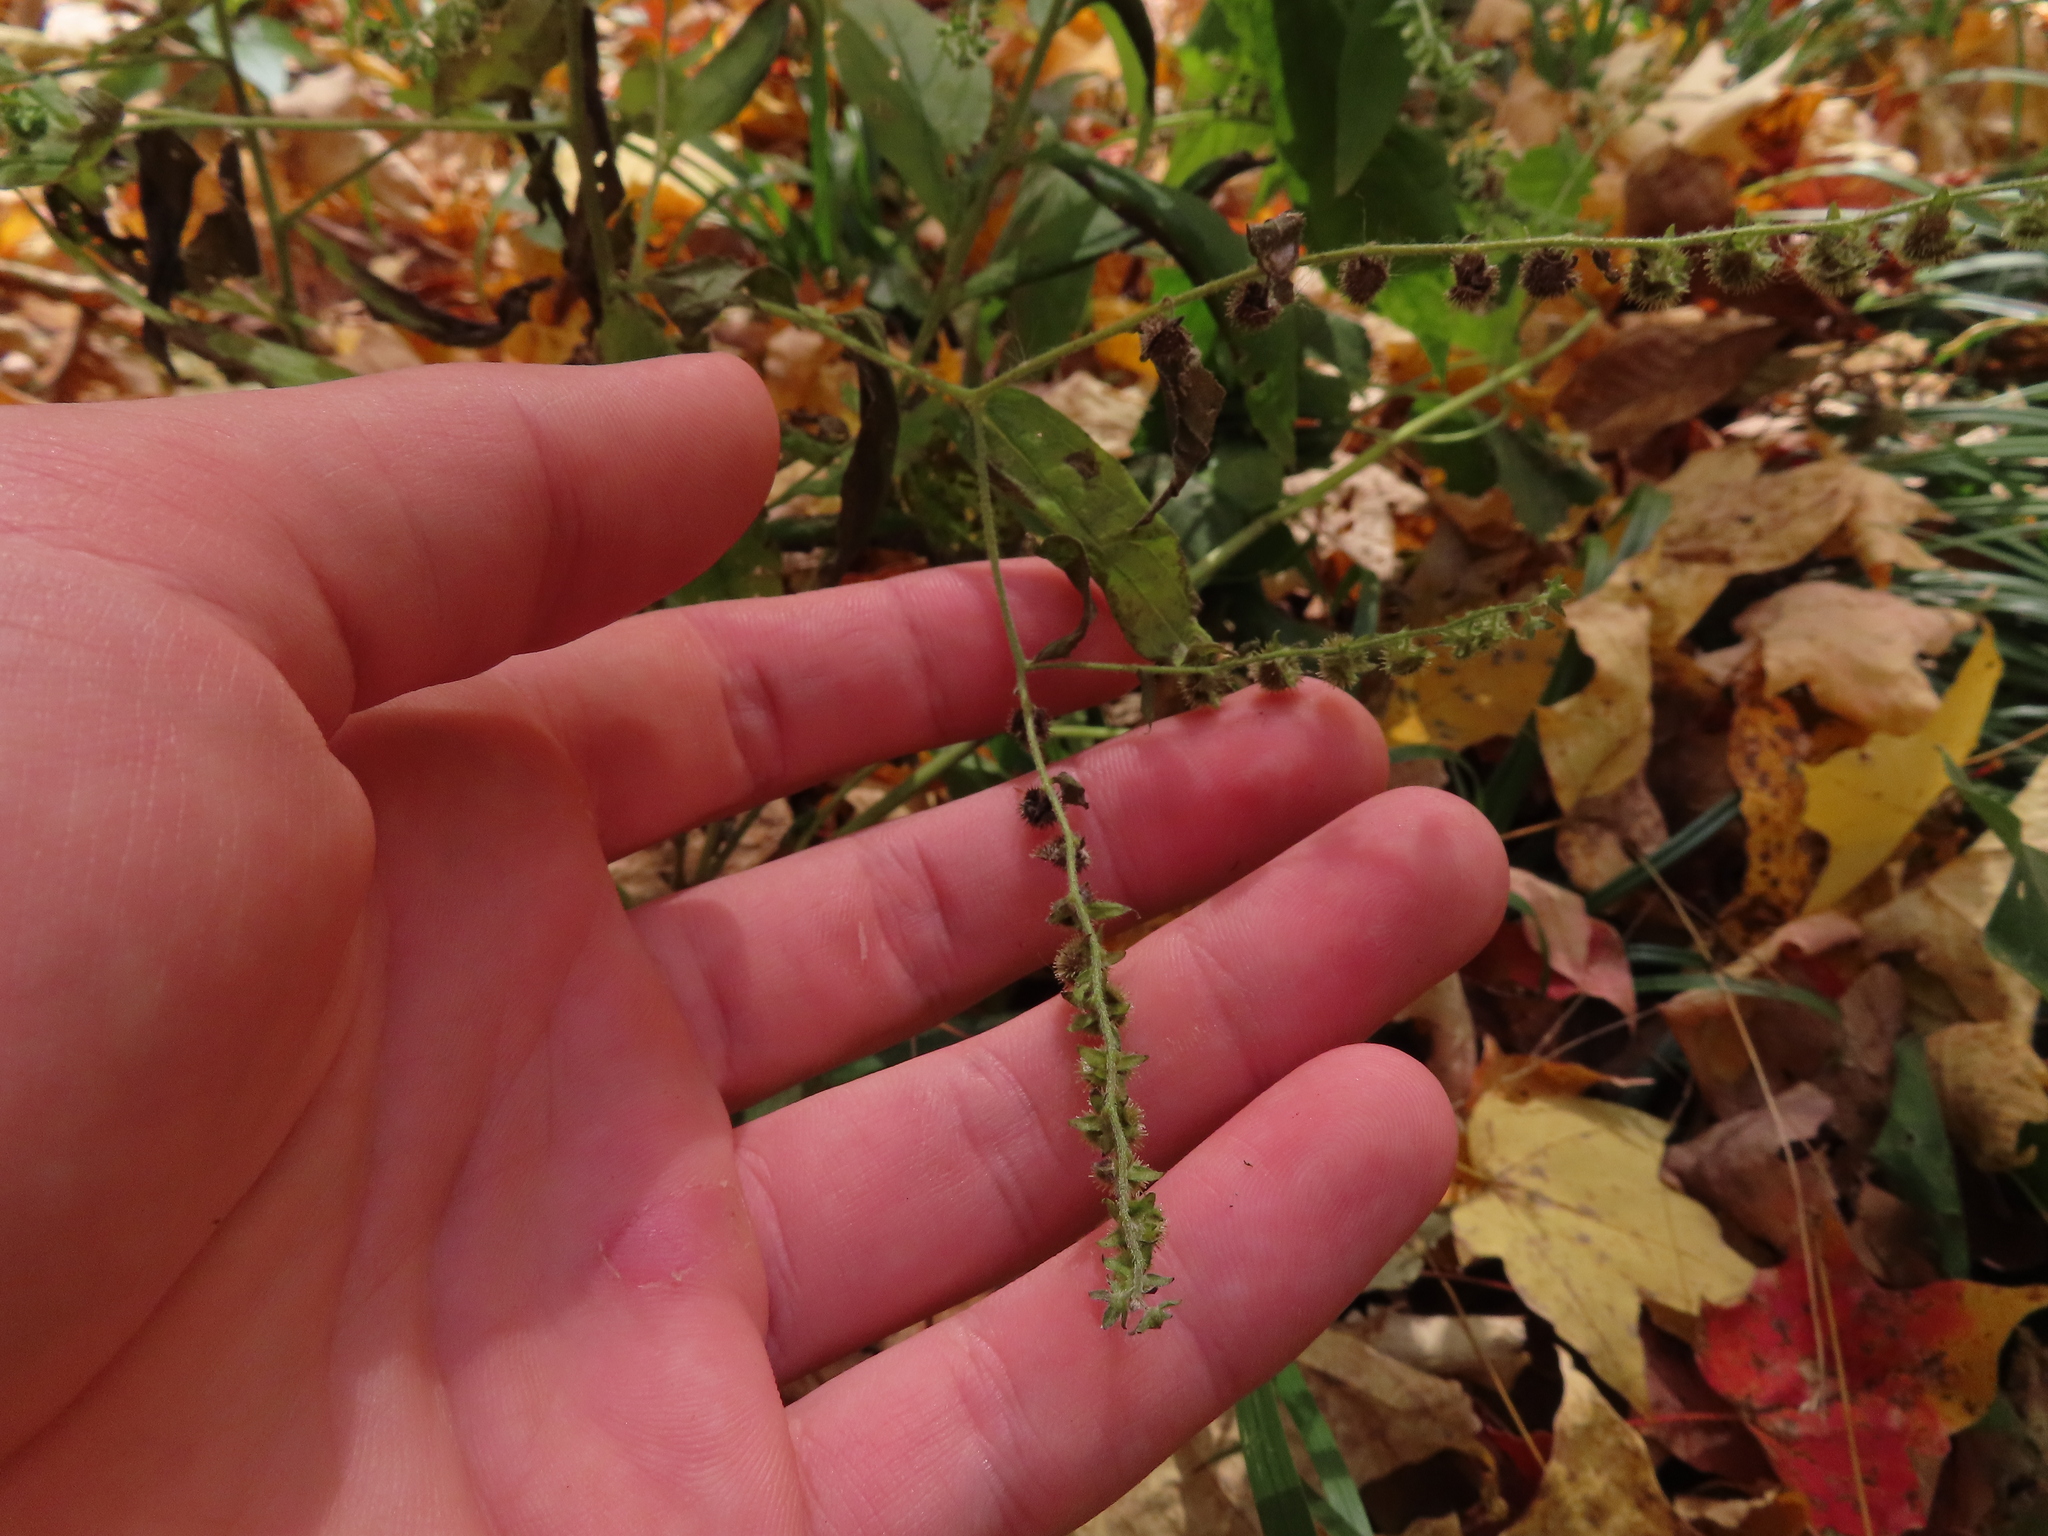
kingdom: Plantae
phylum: Tracheophyta
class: Magnoliopsida
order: Boraginales
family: Boraginaceae
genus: Hackelia
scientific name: Hackelia virginiana
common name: Beggar's-lice
